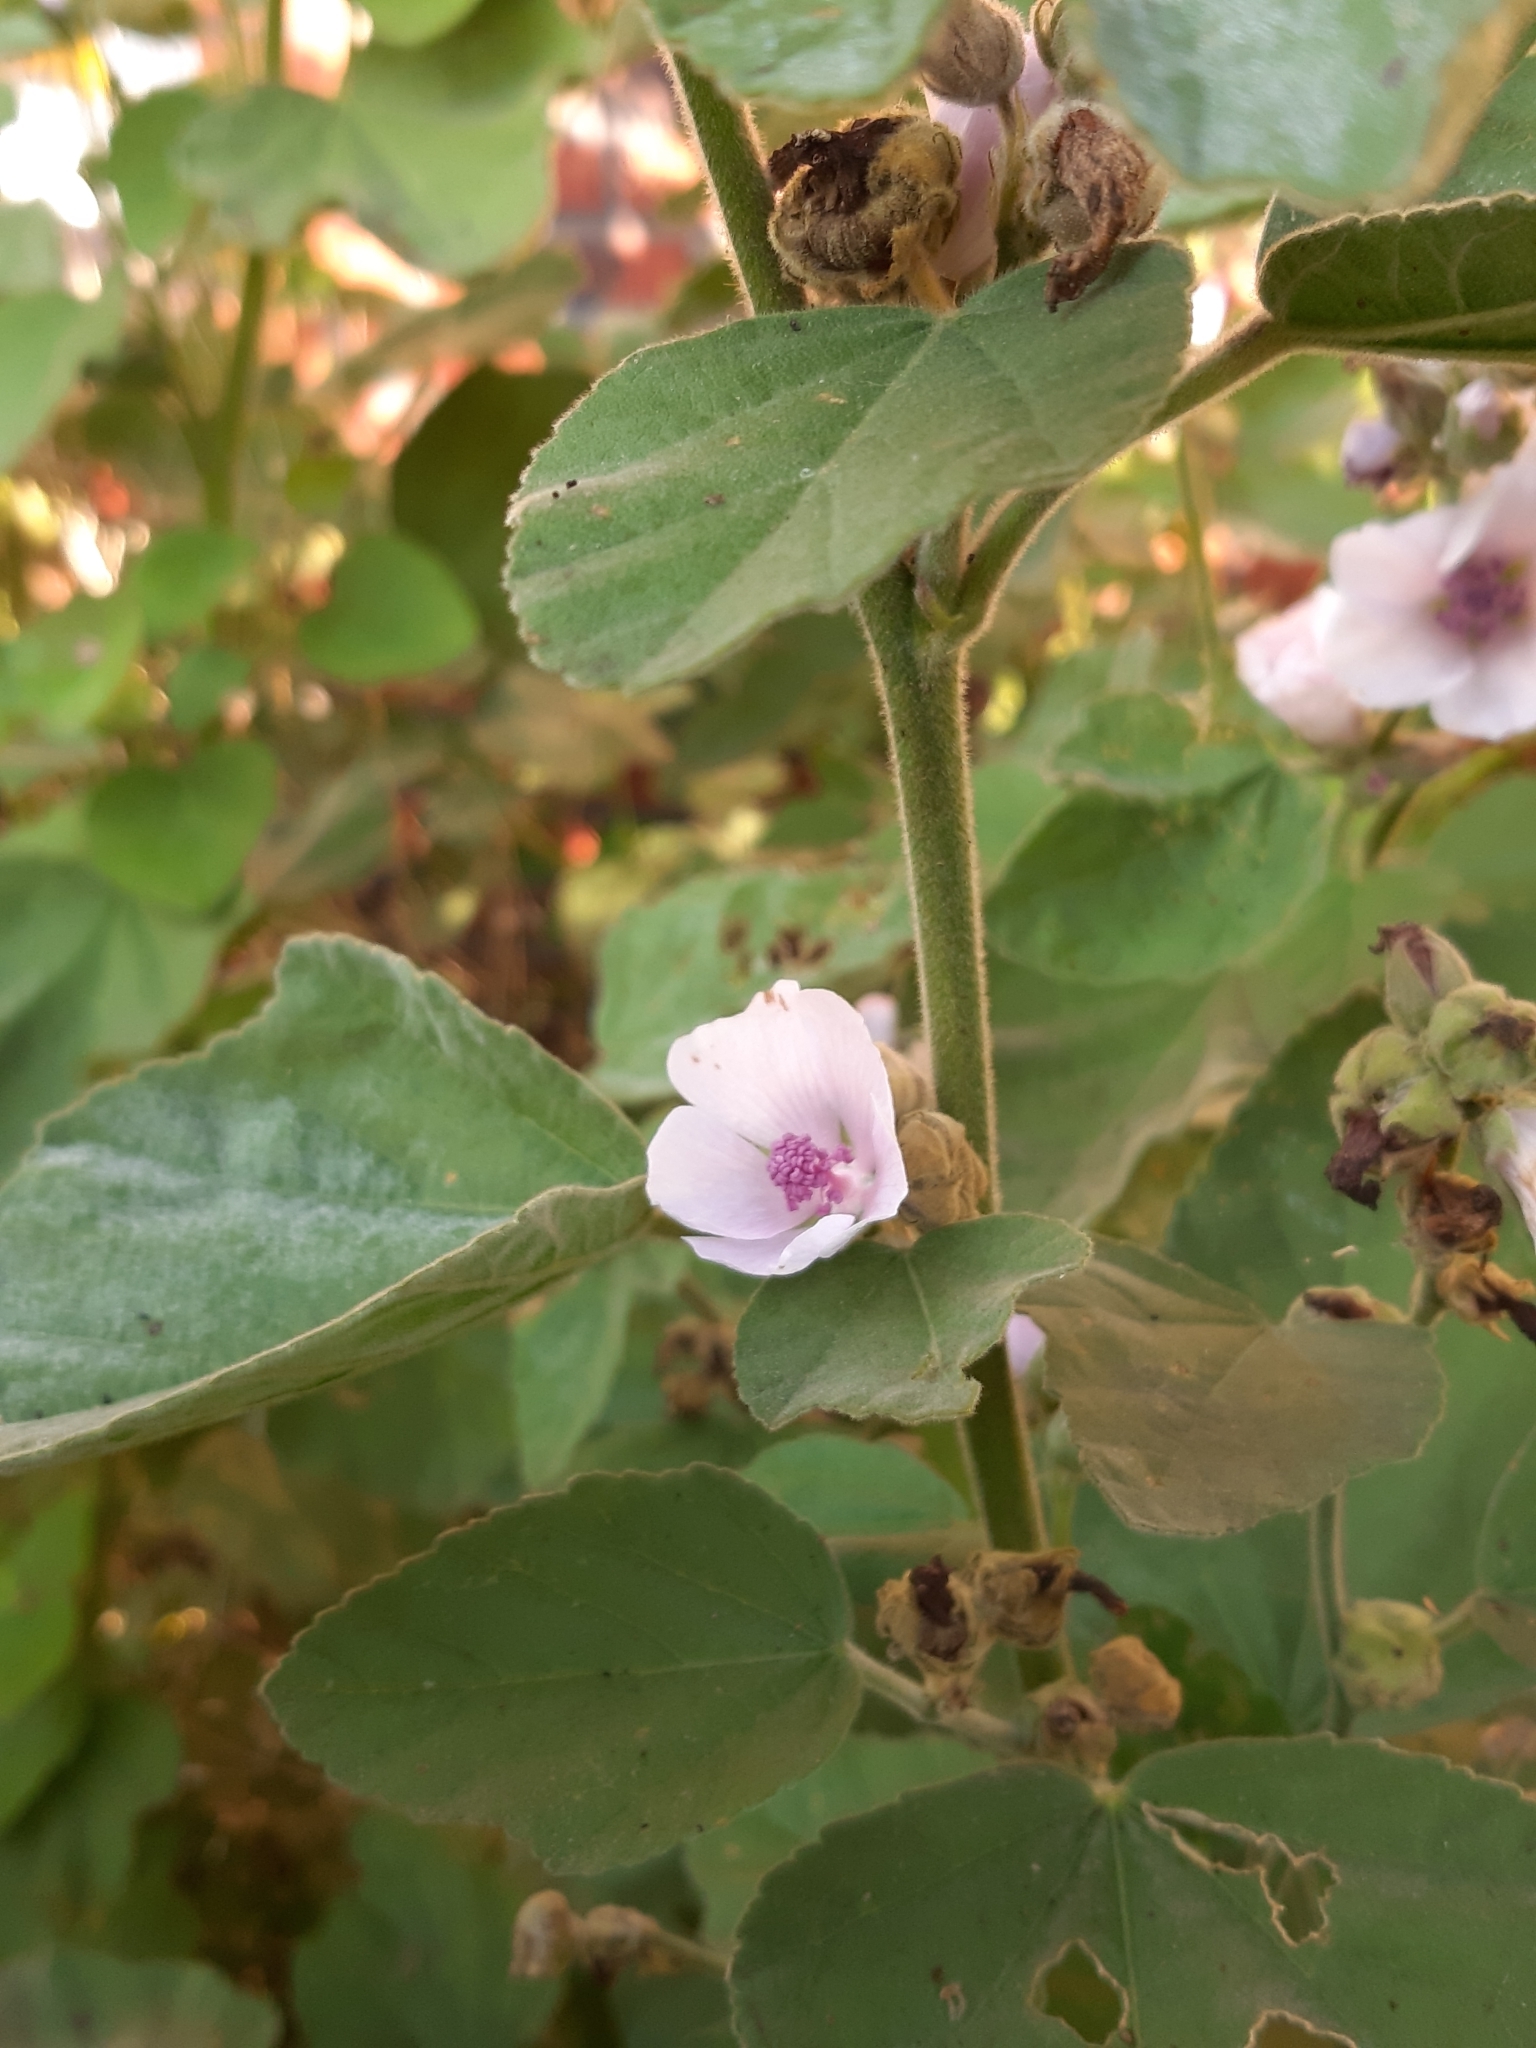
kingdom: Plantae
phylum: Tracheophyta
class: Magnoliopsida
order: Malvales
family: Malvaceae
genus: Althaea
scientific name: Althaea officinalis
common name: Marsh-mallow
